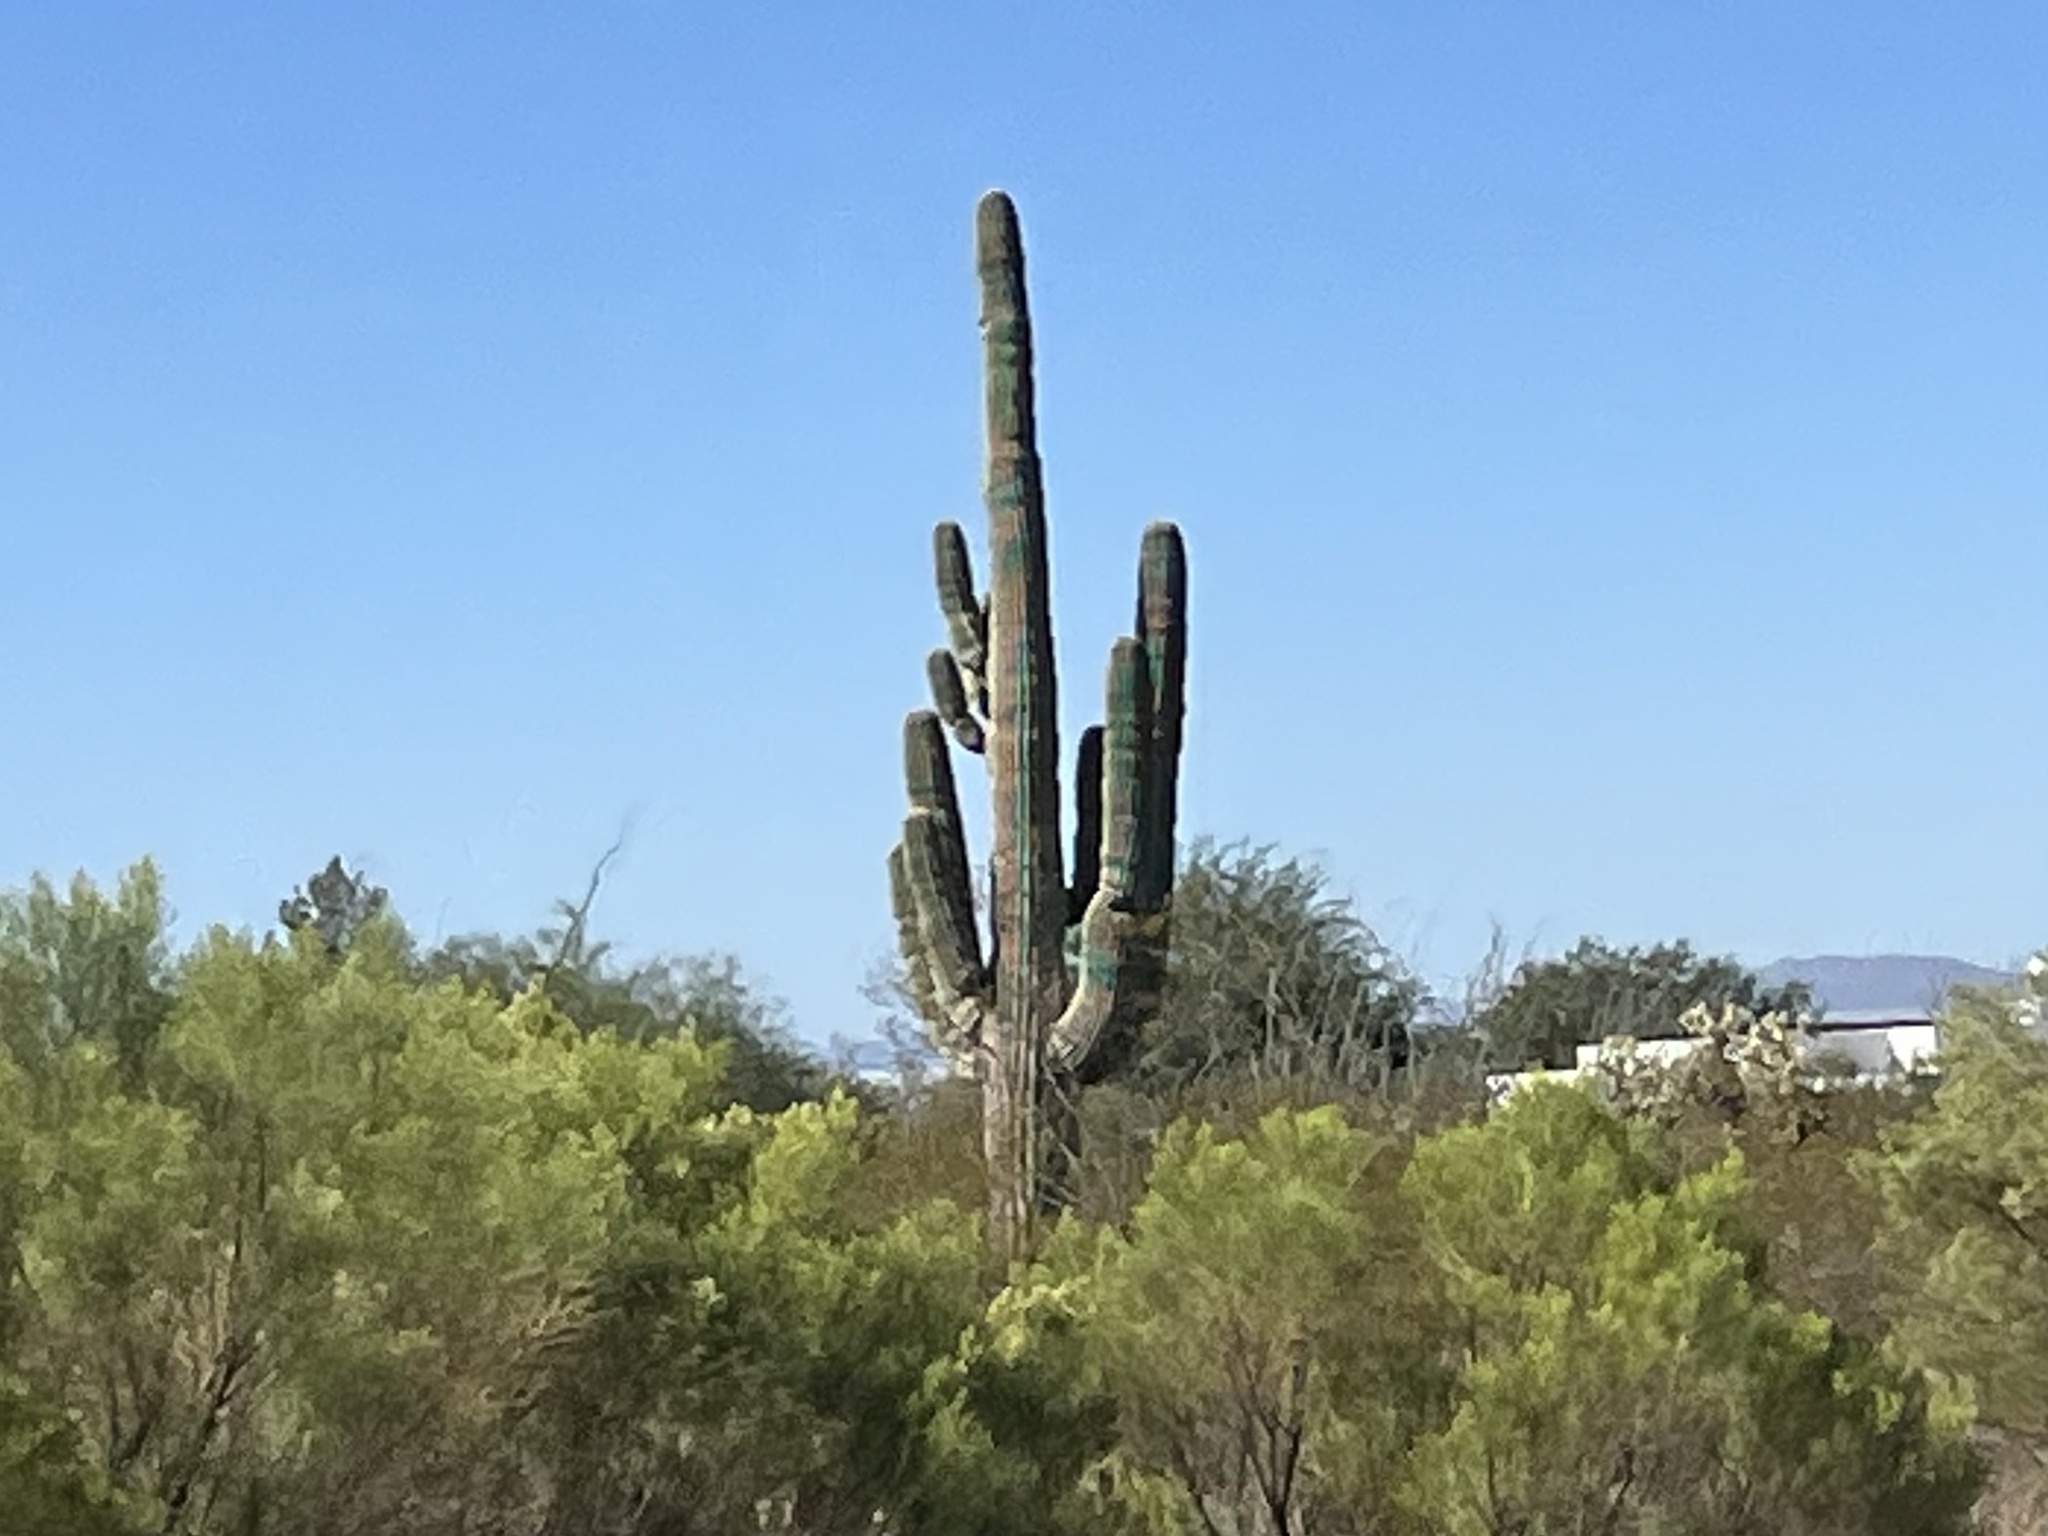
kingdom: Plantae
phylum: Tracheophyta
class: Magnoliopsida
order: Caryophyllales
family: Cactaceae
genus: Carnegiea
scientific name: Carnegiea gigantea
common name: Saguaro
